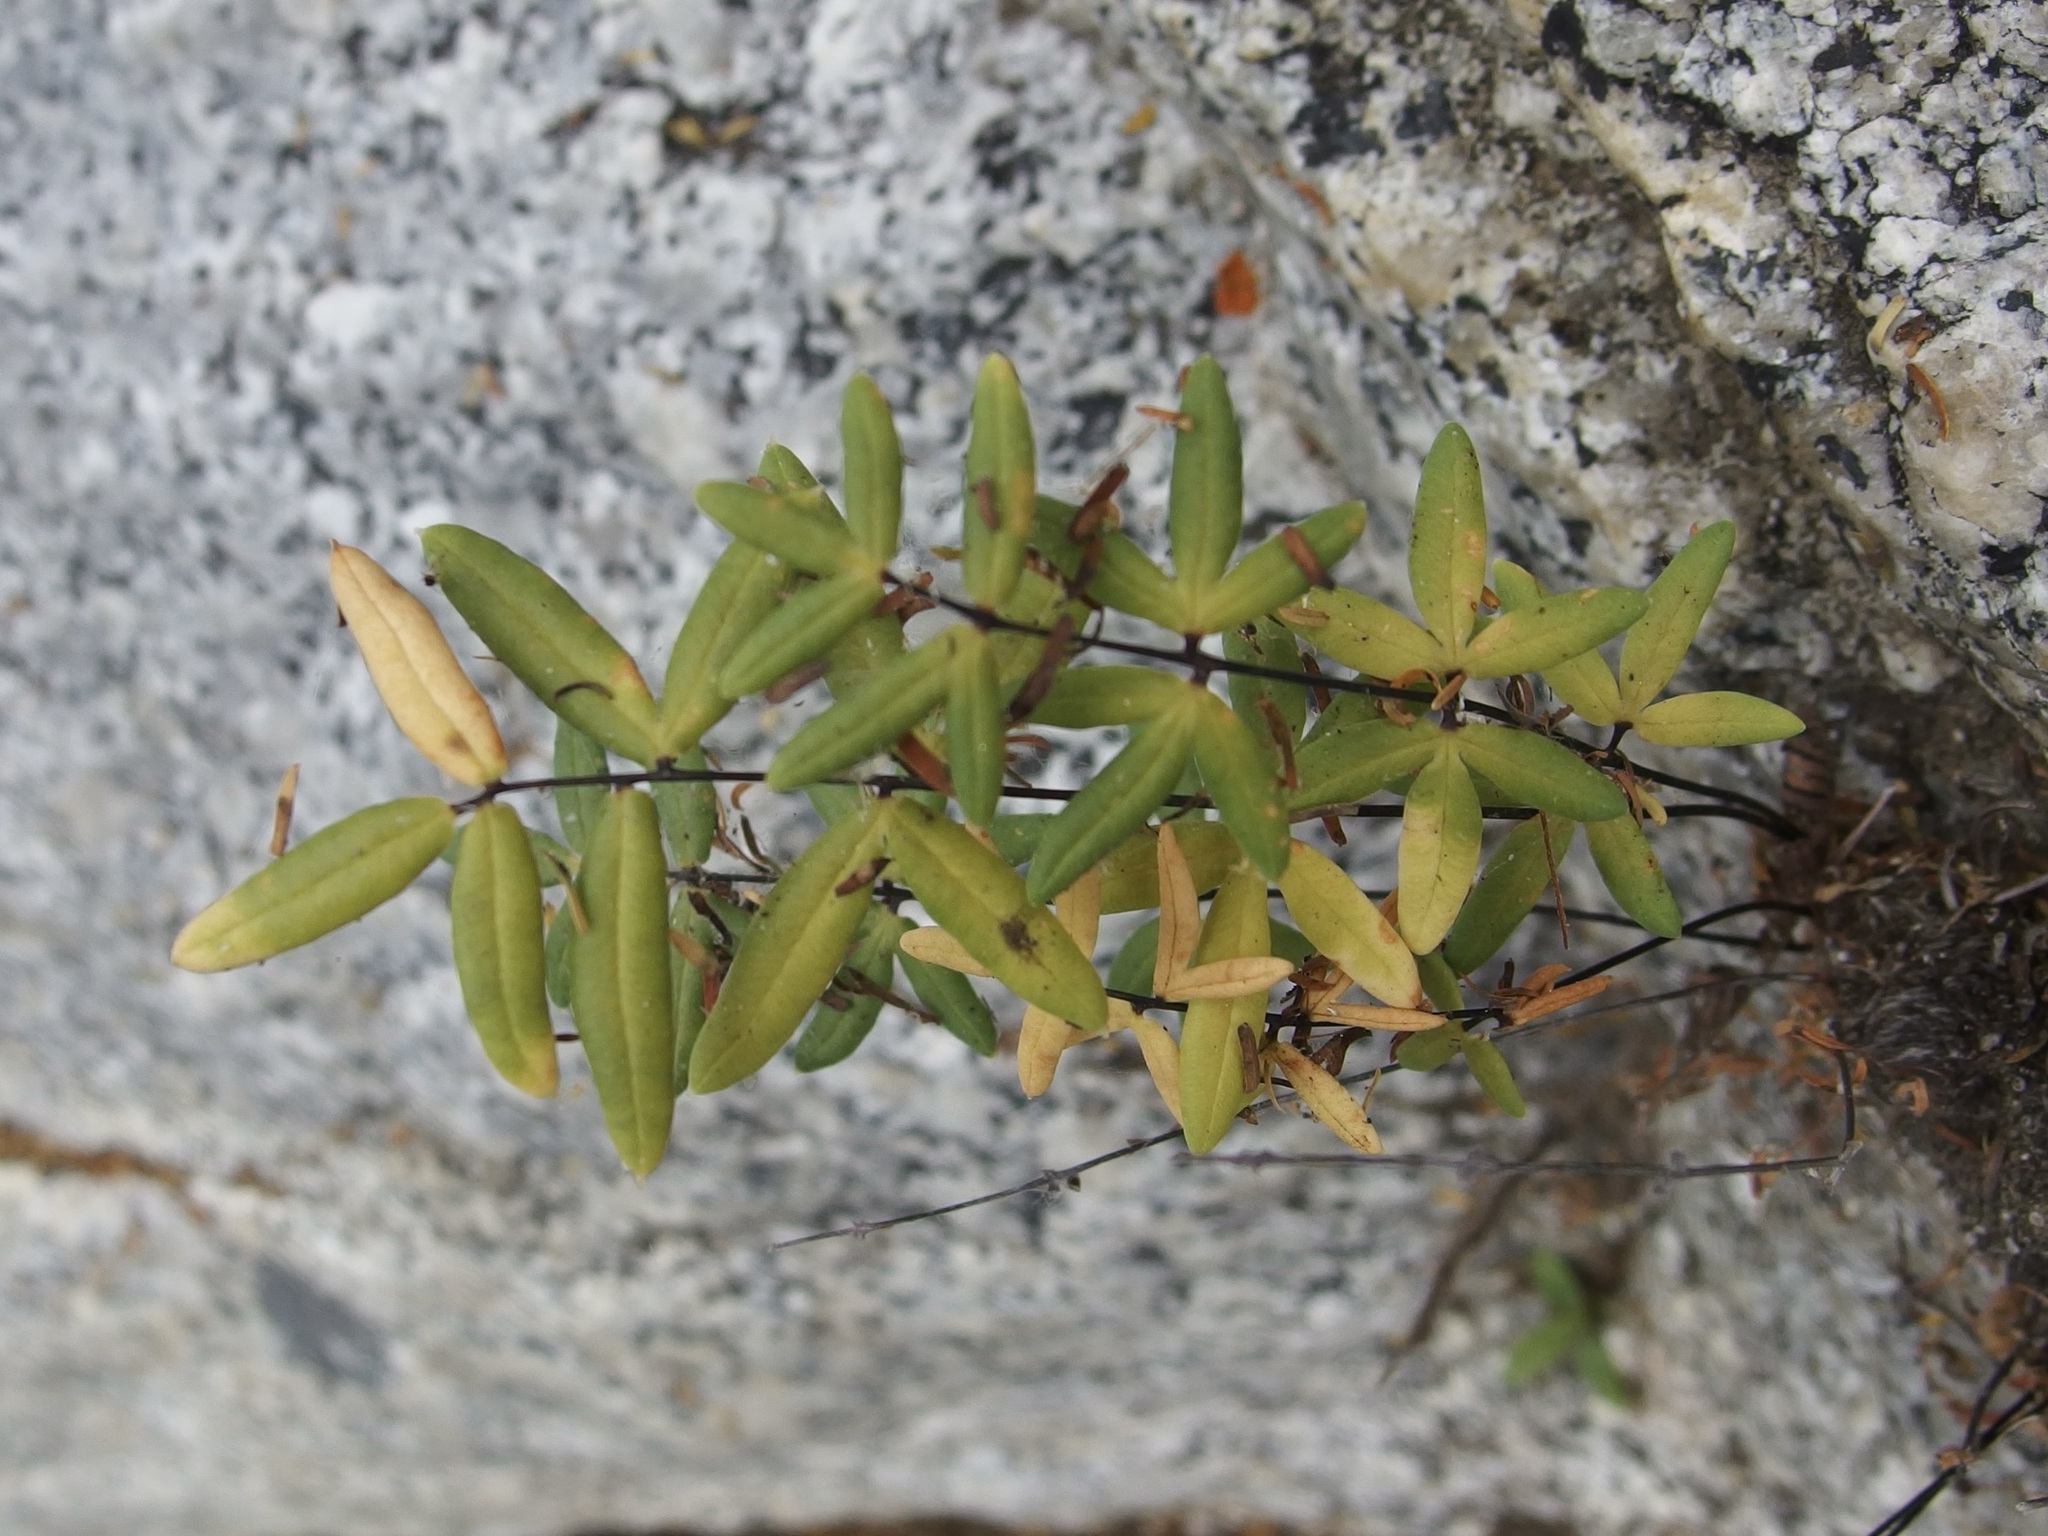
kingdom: Plantae
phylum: Tracheophyta
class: Polypodiopsida
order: Polypodiales
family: Pteridaceae
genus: Pellaea
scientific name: Pellaea ternifolia
